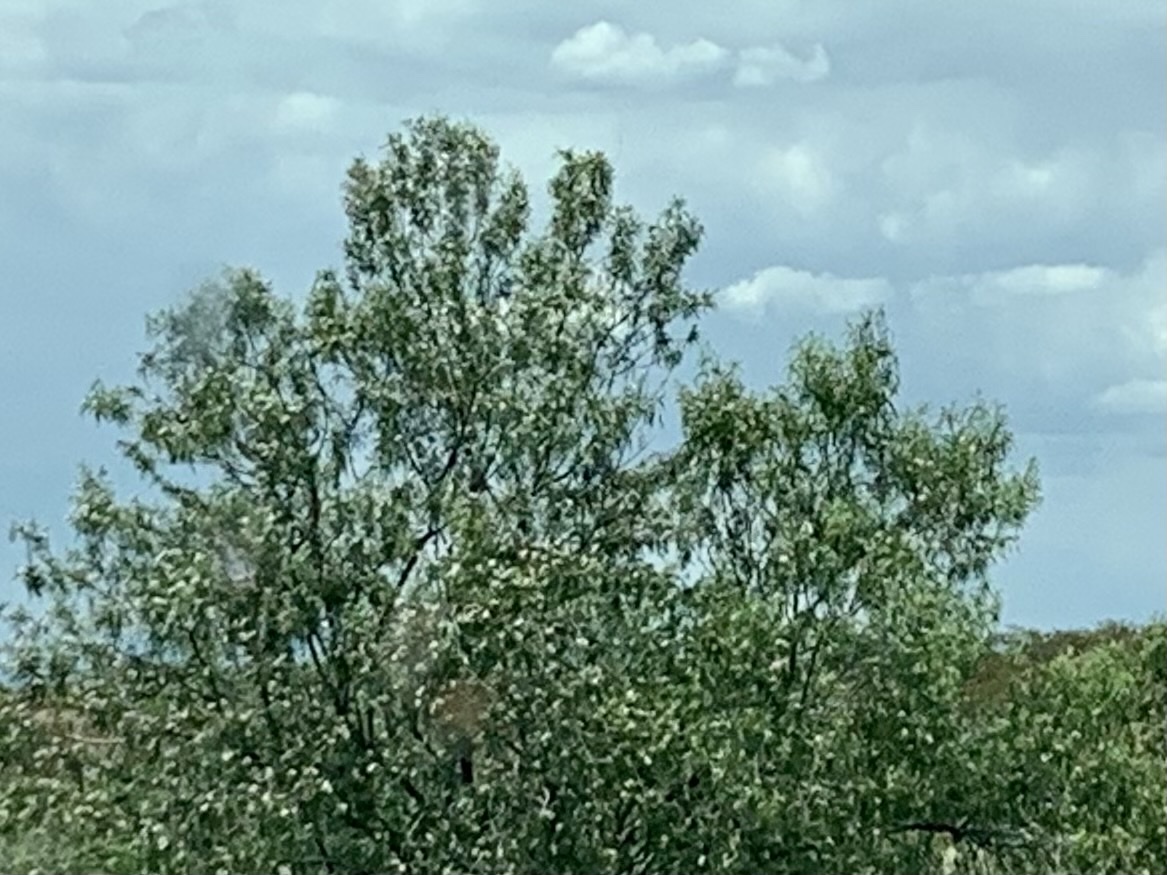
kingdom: Plantae
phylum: Tracheophyta
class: Magnoliopsida
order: Lamiales
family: Bignoniaceae
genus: Chilopsis
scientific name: Chilopsis linearis
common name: Desert-willow
